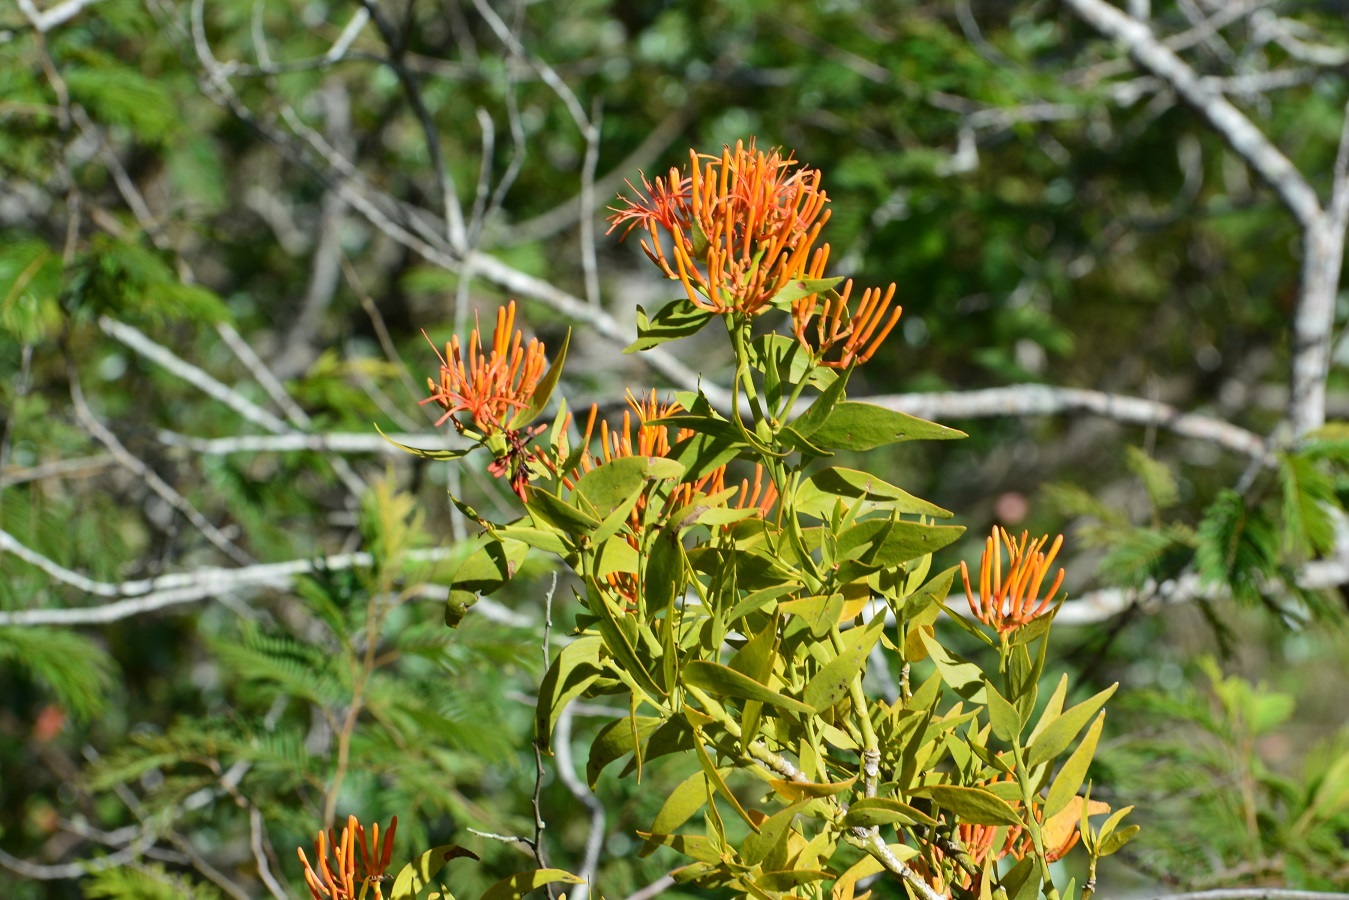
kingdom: Plantae
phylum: Tracheophyta
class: Magnoliopsida
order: Santalales
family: Loranthaceae
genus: Psittacanthus
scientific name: Psittacanthus calyculatus
